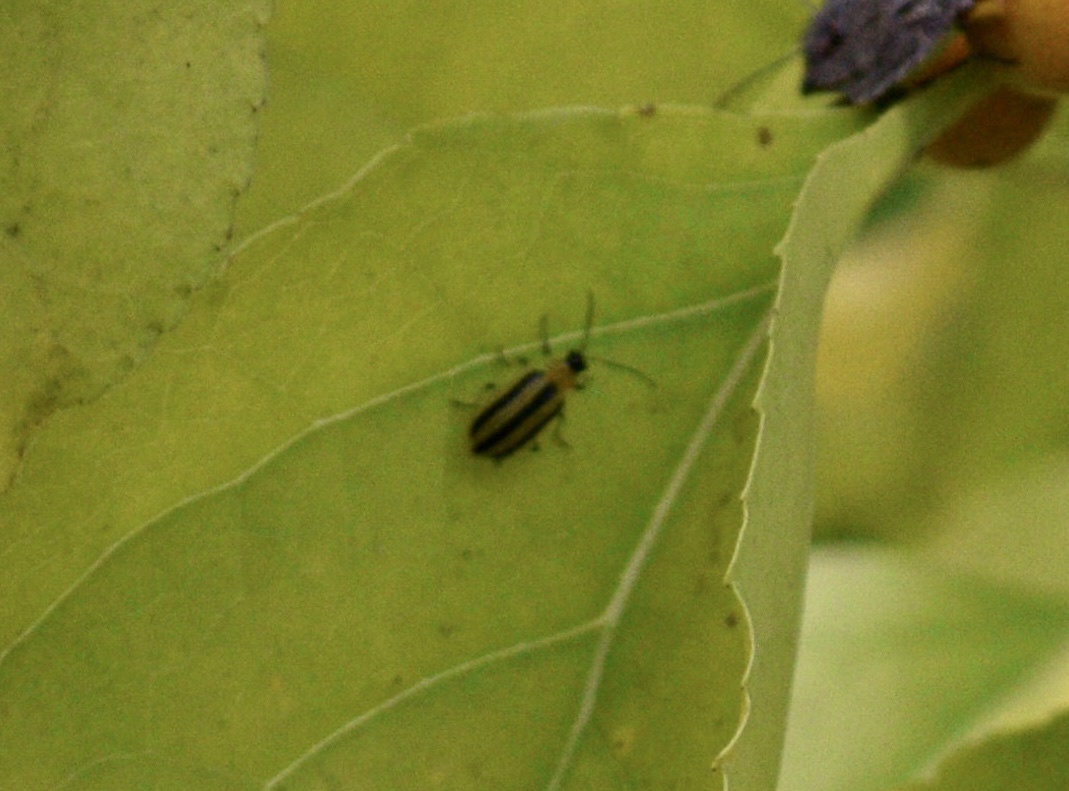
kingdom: Animalia
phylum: Arthropoda
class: Insecta
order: Coleoptera
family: Chrysomelidae
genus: Acalymma
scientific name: Acalymma vittatum
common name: Striped cucumber beetle
